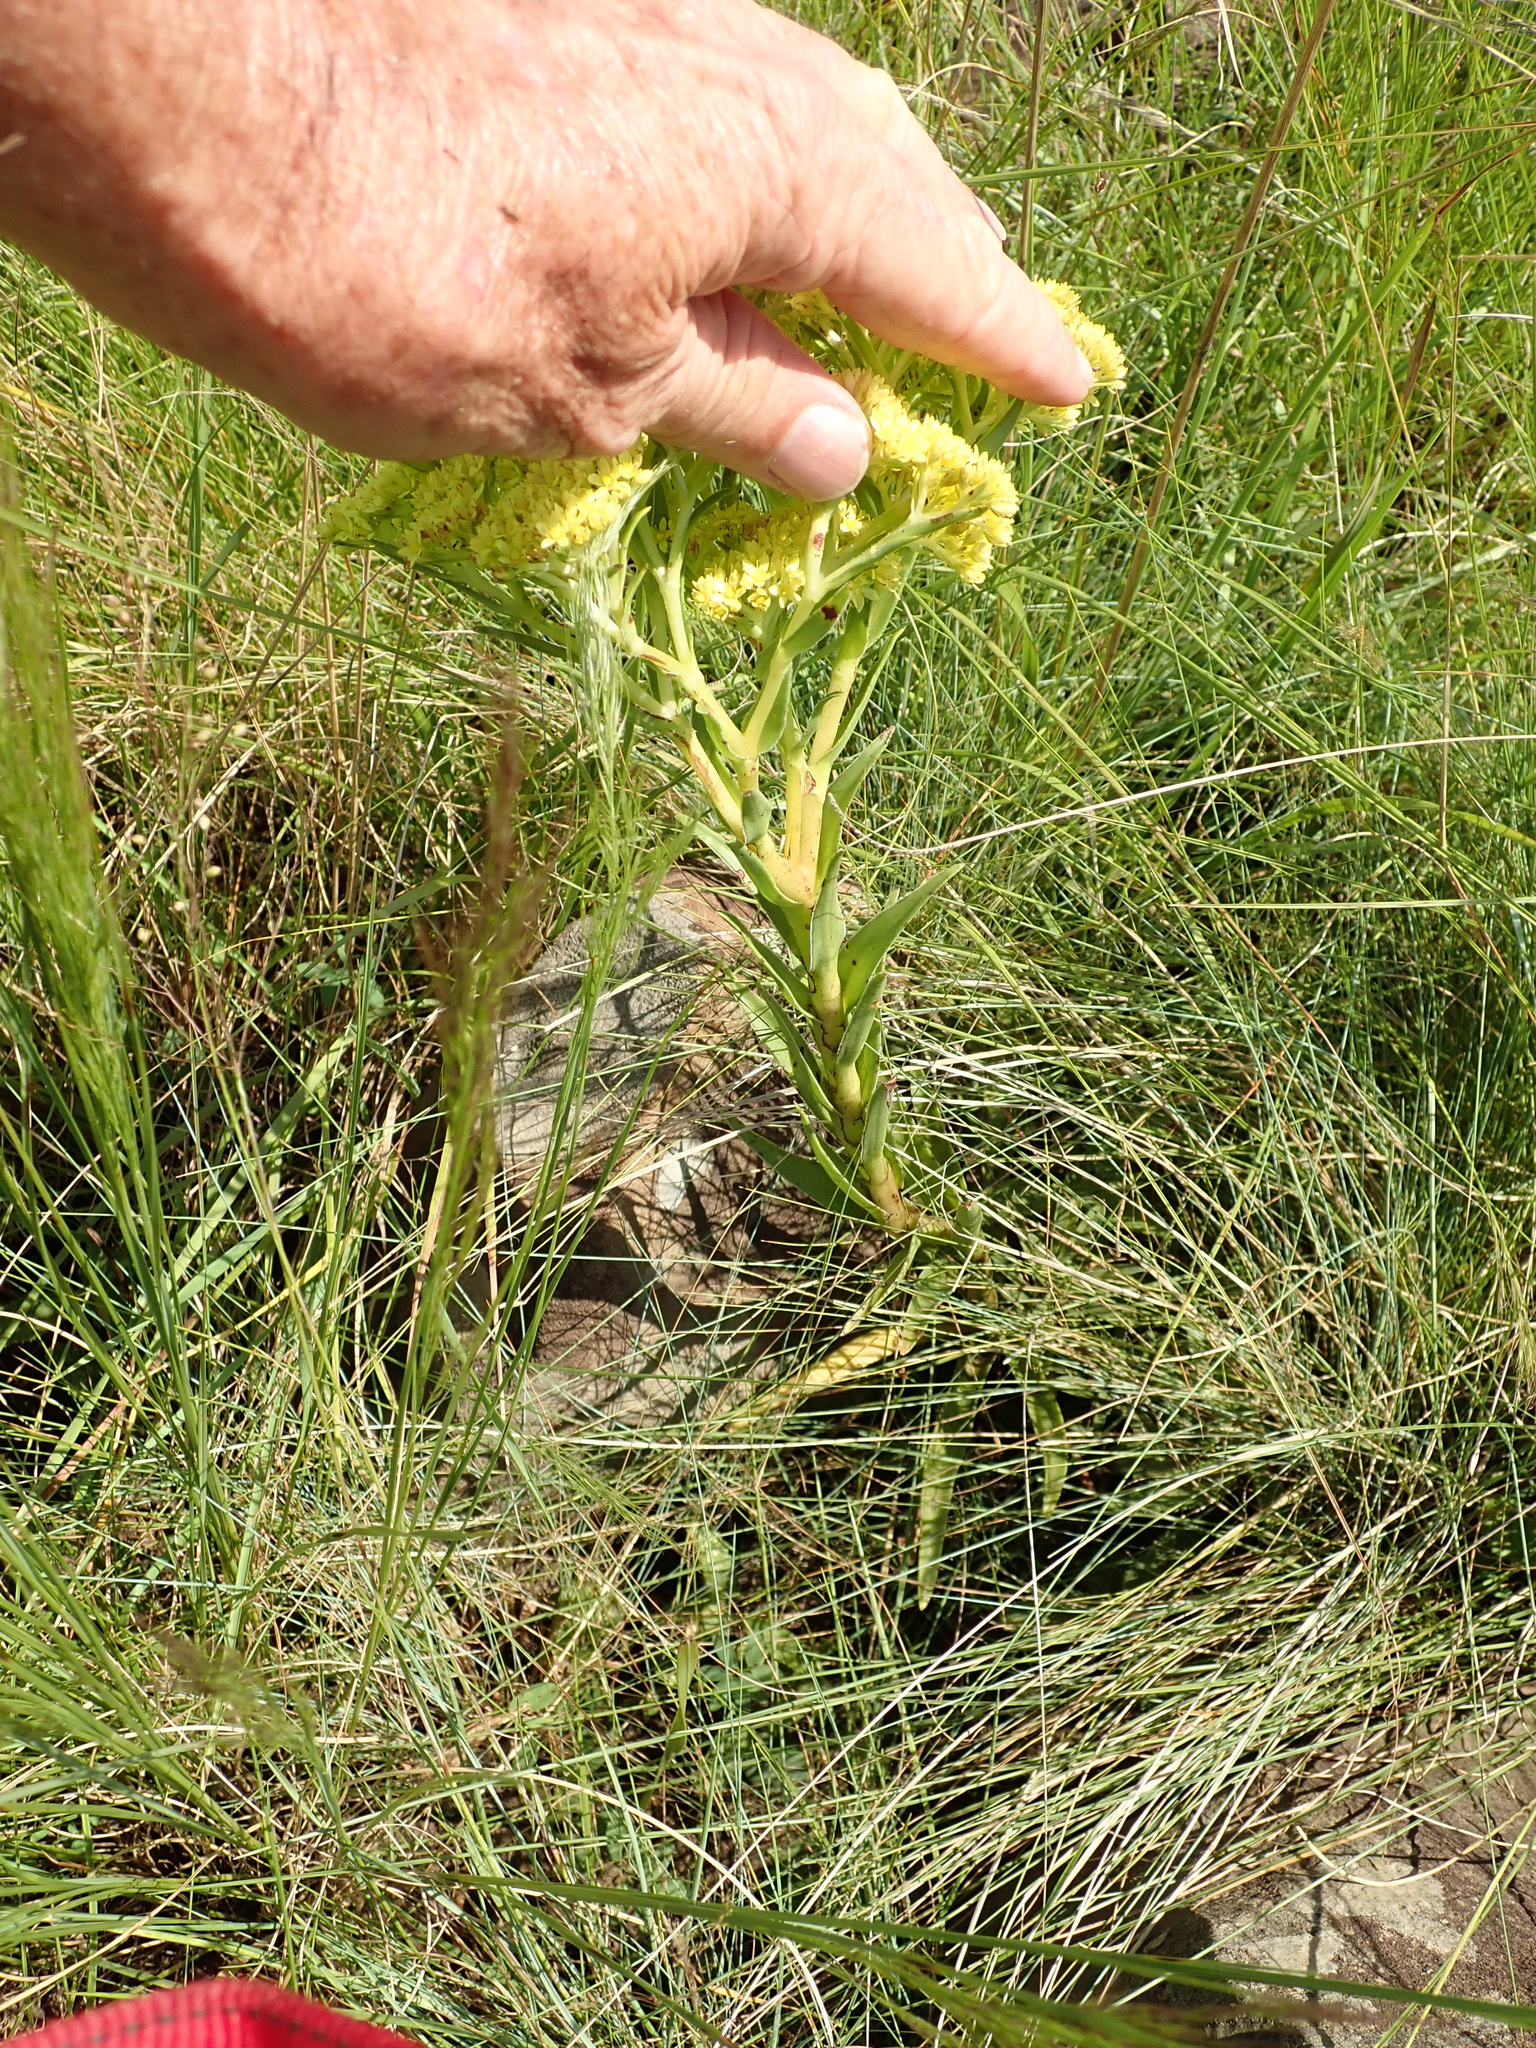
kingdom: Plantae
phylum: Tracheophyta
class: Magnoliopsida
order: Saxifragales
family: Crassulaceae
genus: Crassula
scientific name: Crassula alba
